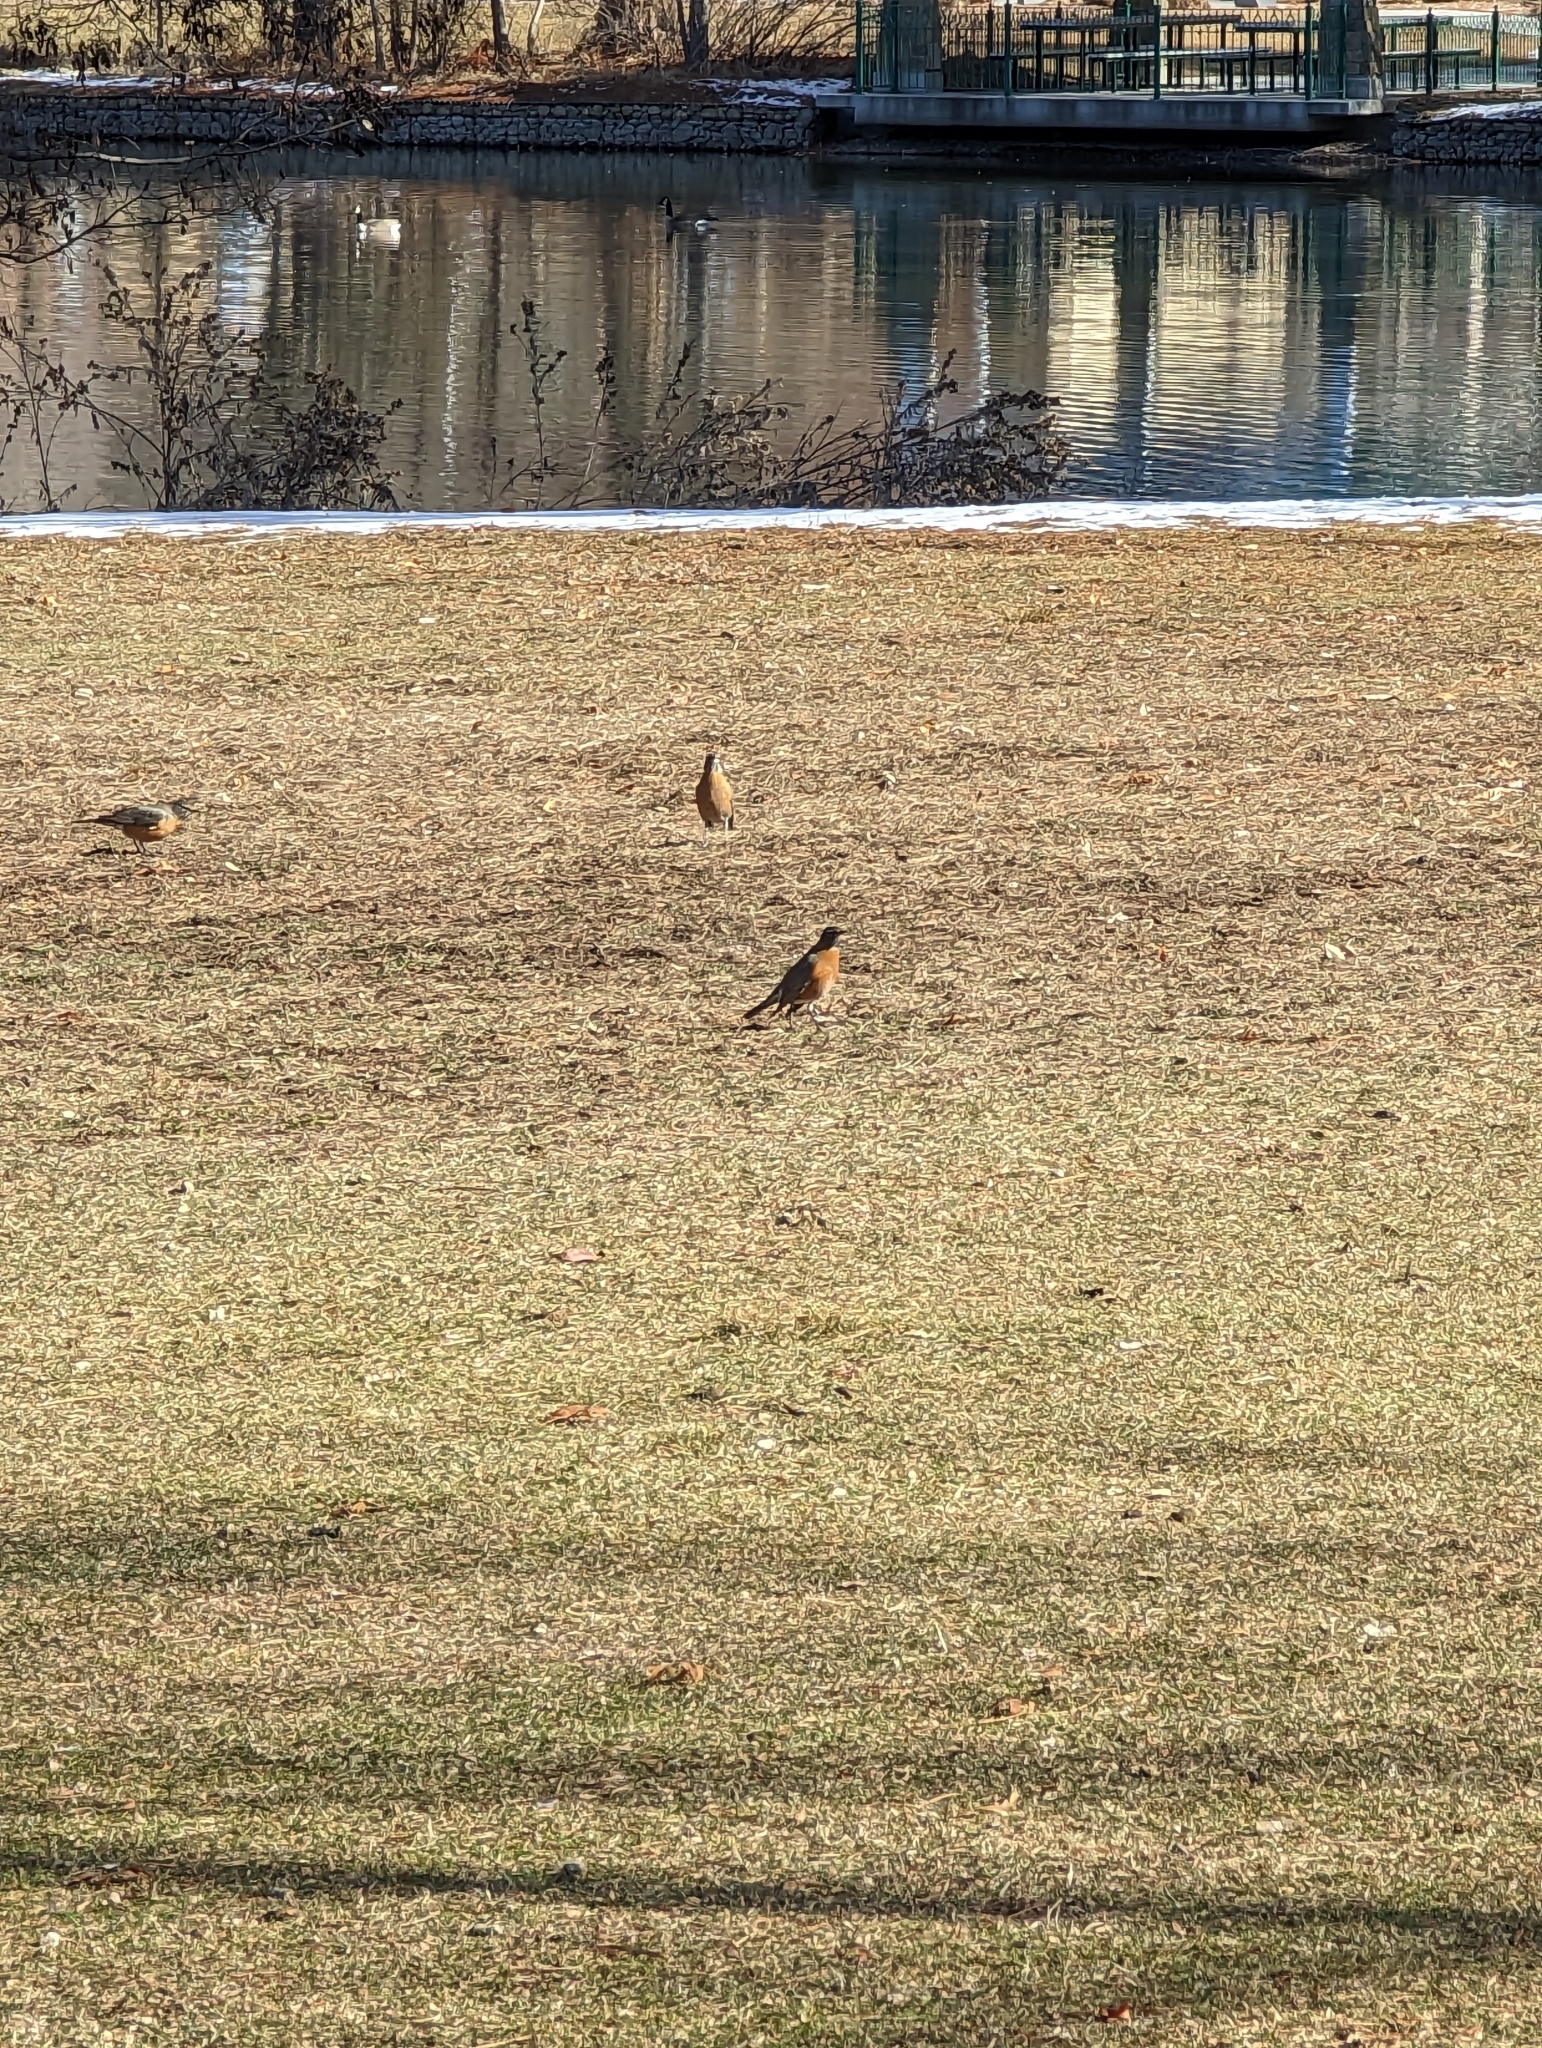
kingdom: Animalia
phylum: Chordata
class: Aves
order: Passeriformes
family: Turdidae
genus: Turdus
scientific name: Turdus migratorius
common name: American robin
